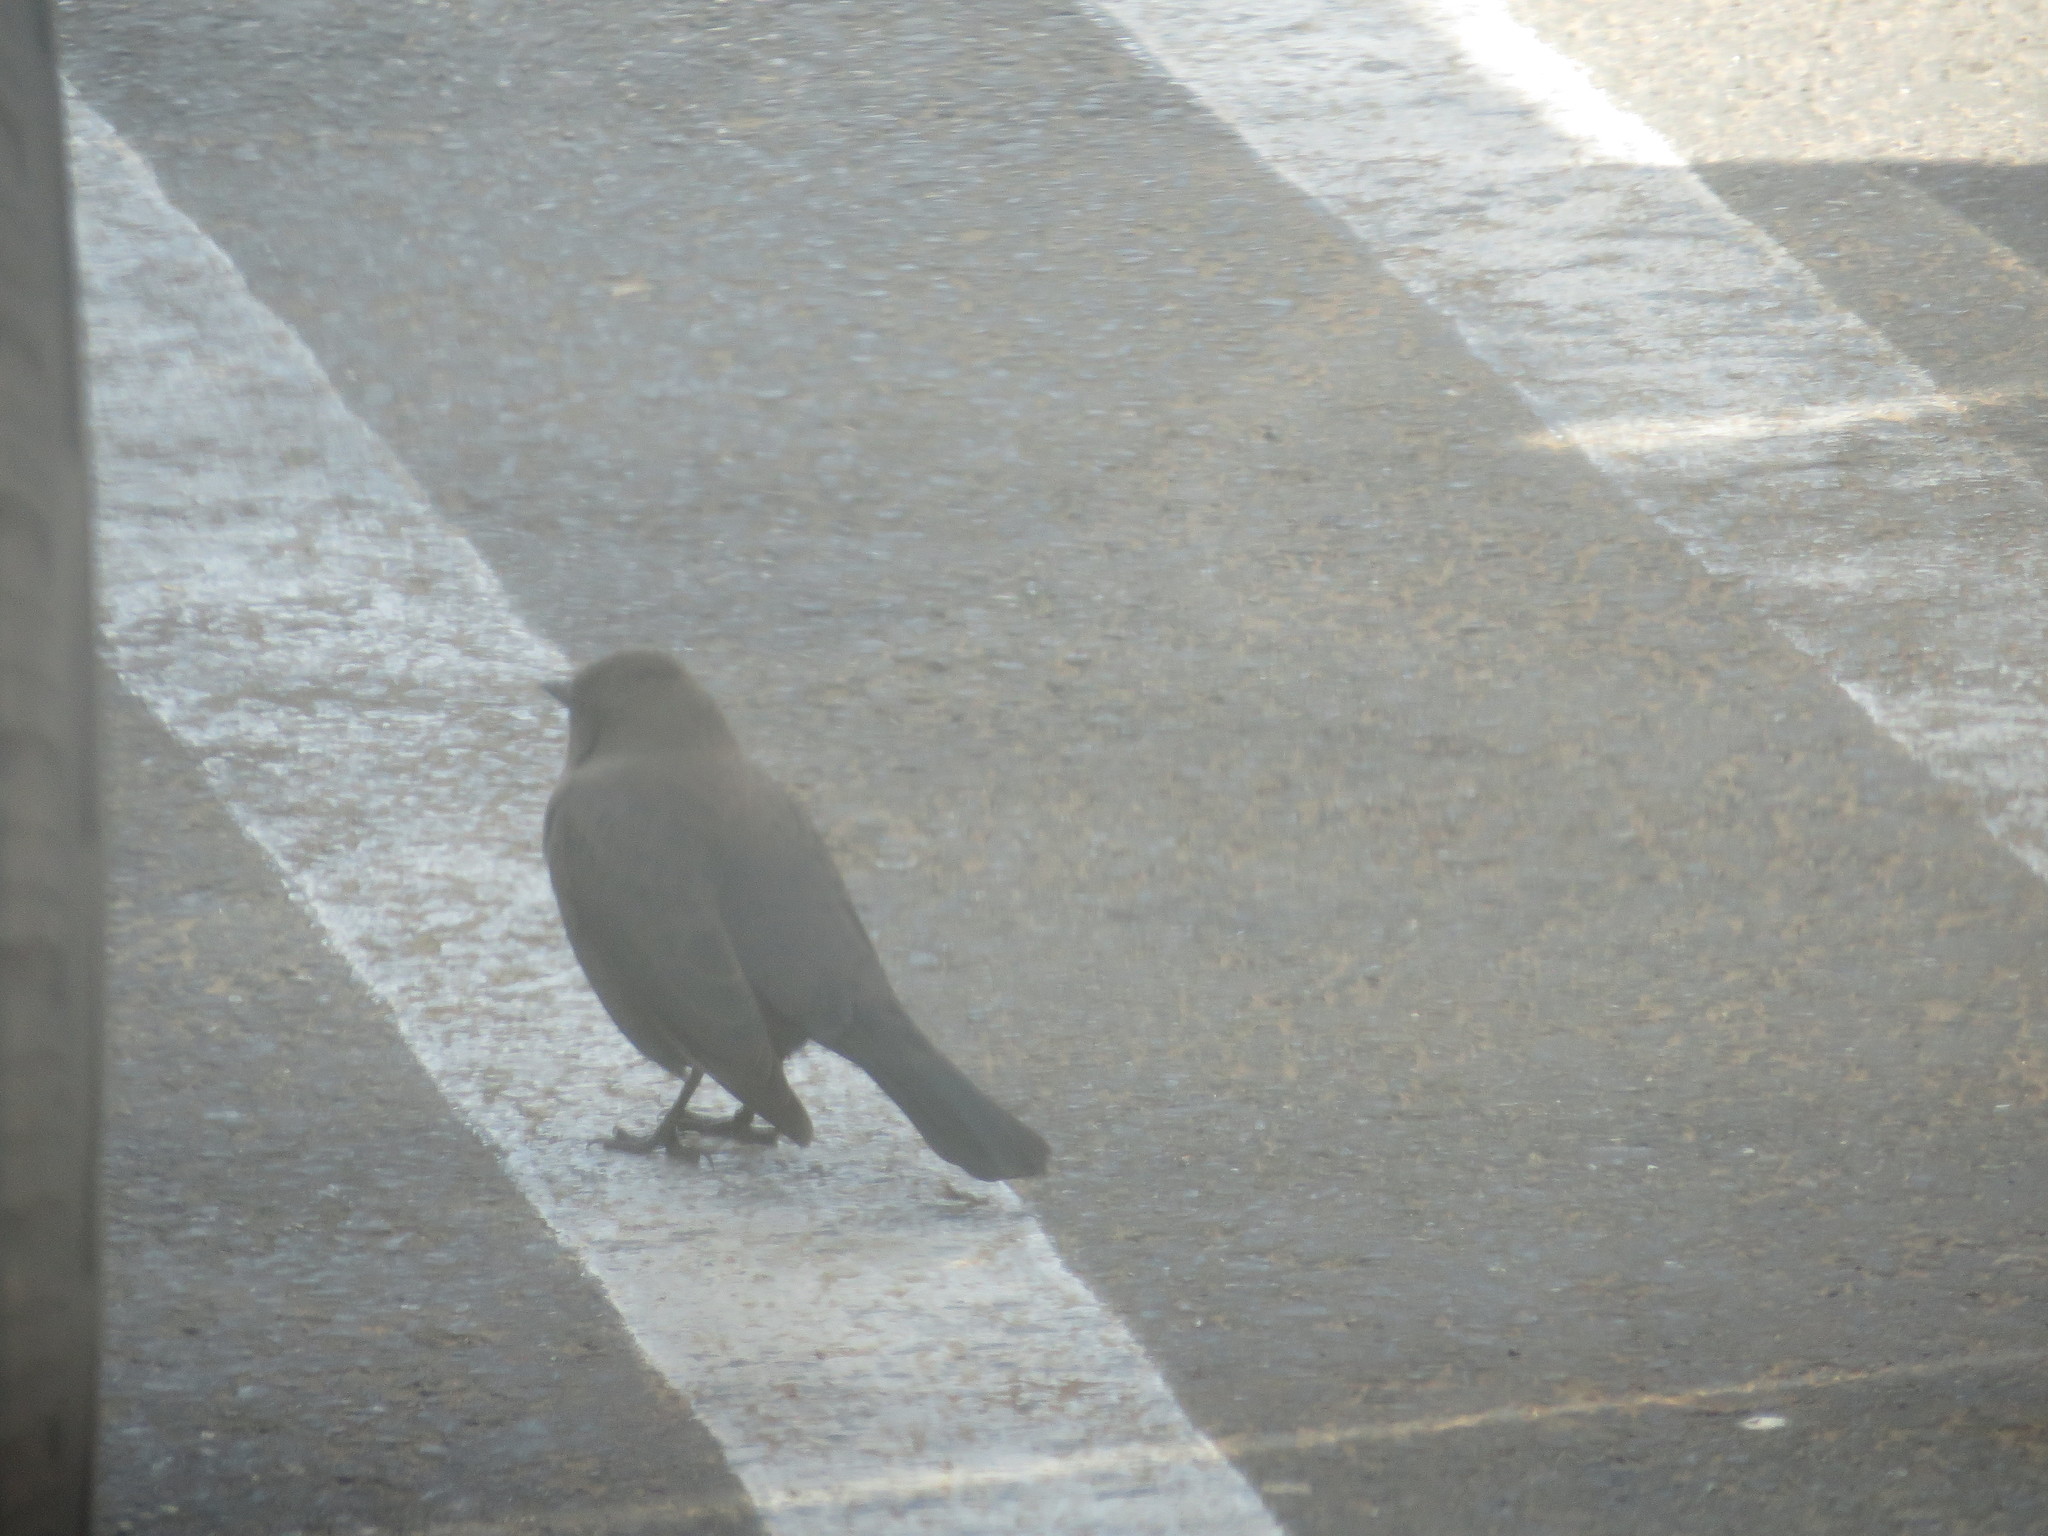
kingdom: Animalia
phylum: Chordata
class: Aves
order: Passeriformes
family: Icteridae
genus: Euphagus
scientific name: Euphagus cyanocephalus
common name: Brewer's blackbird
